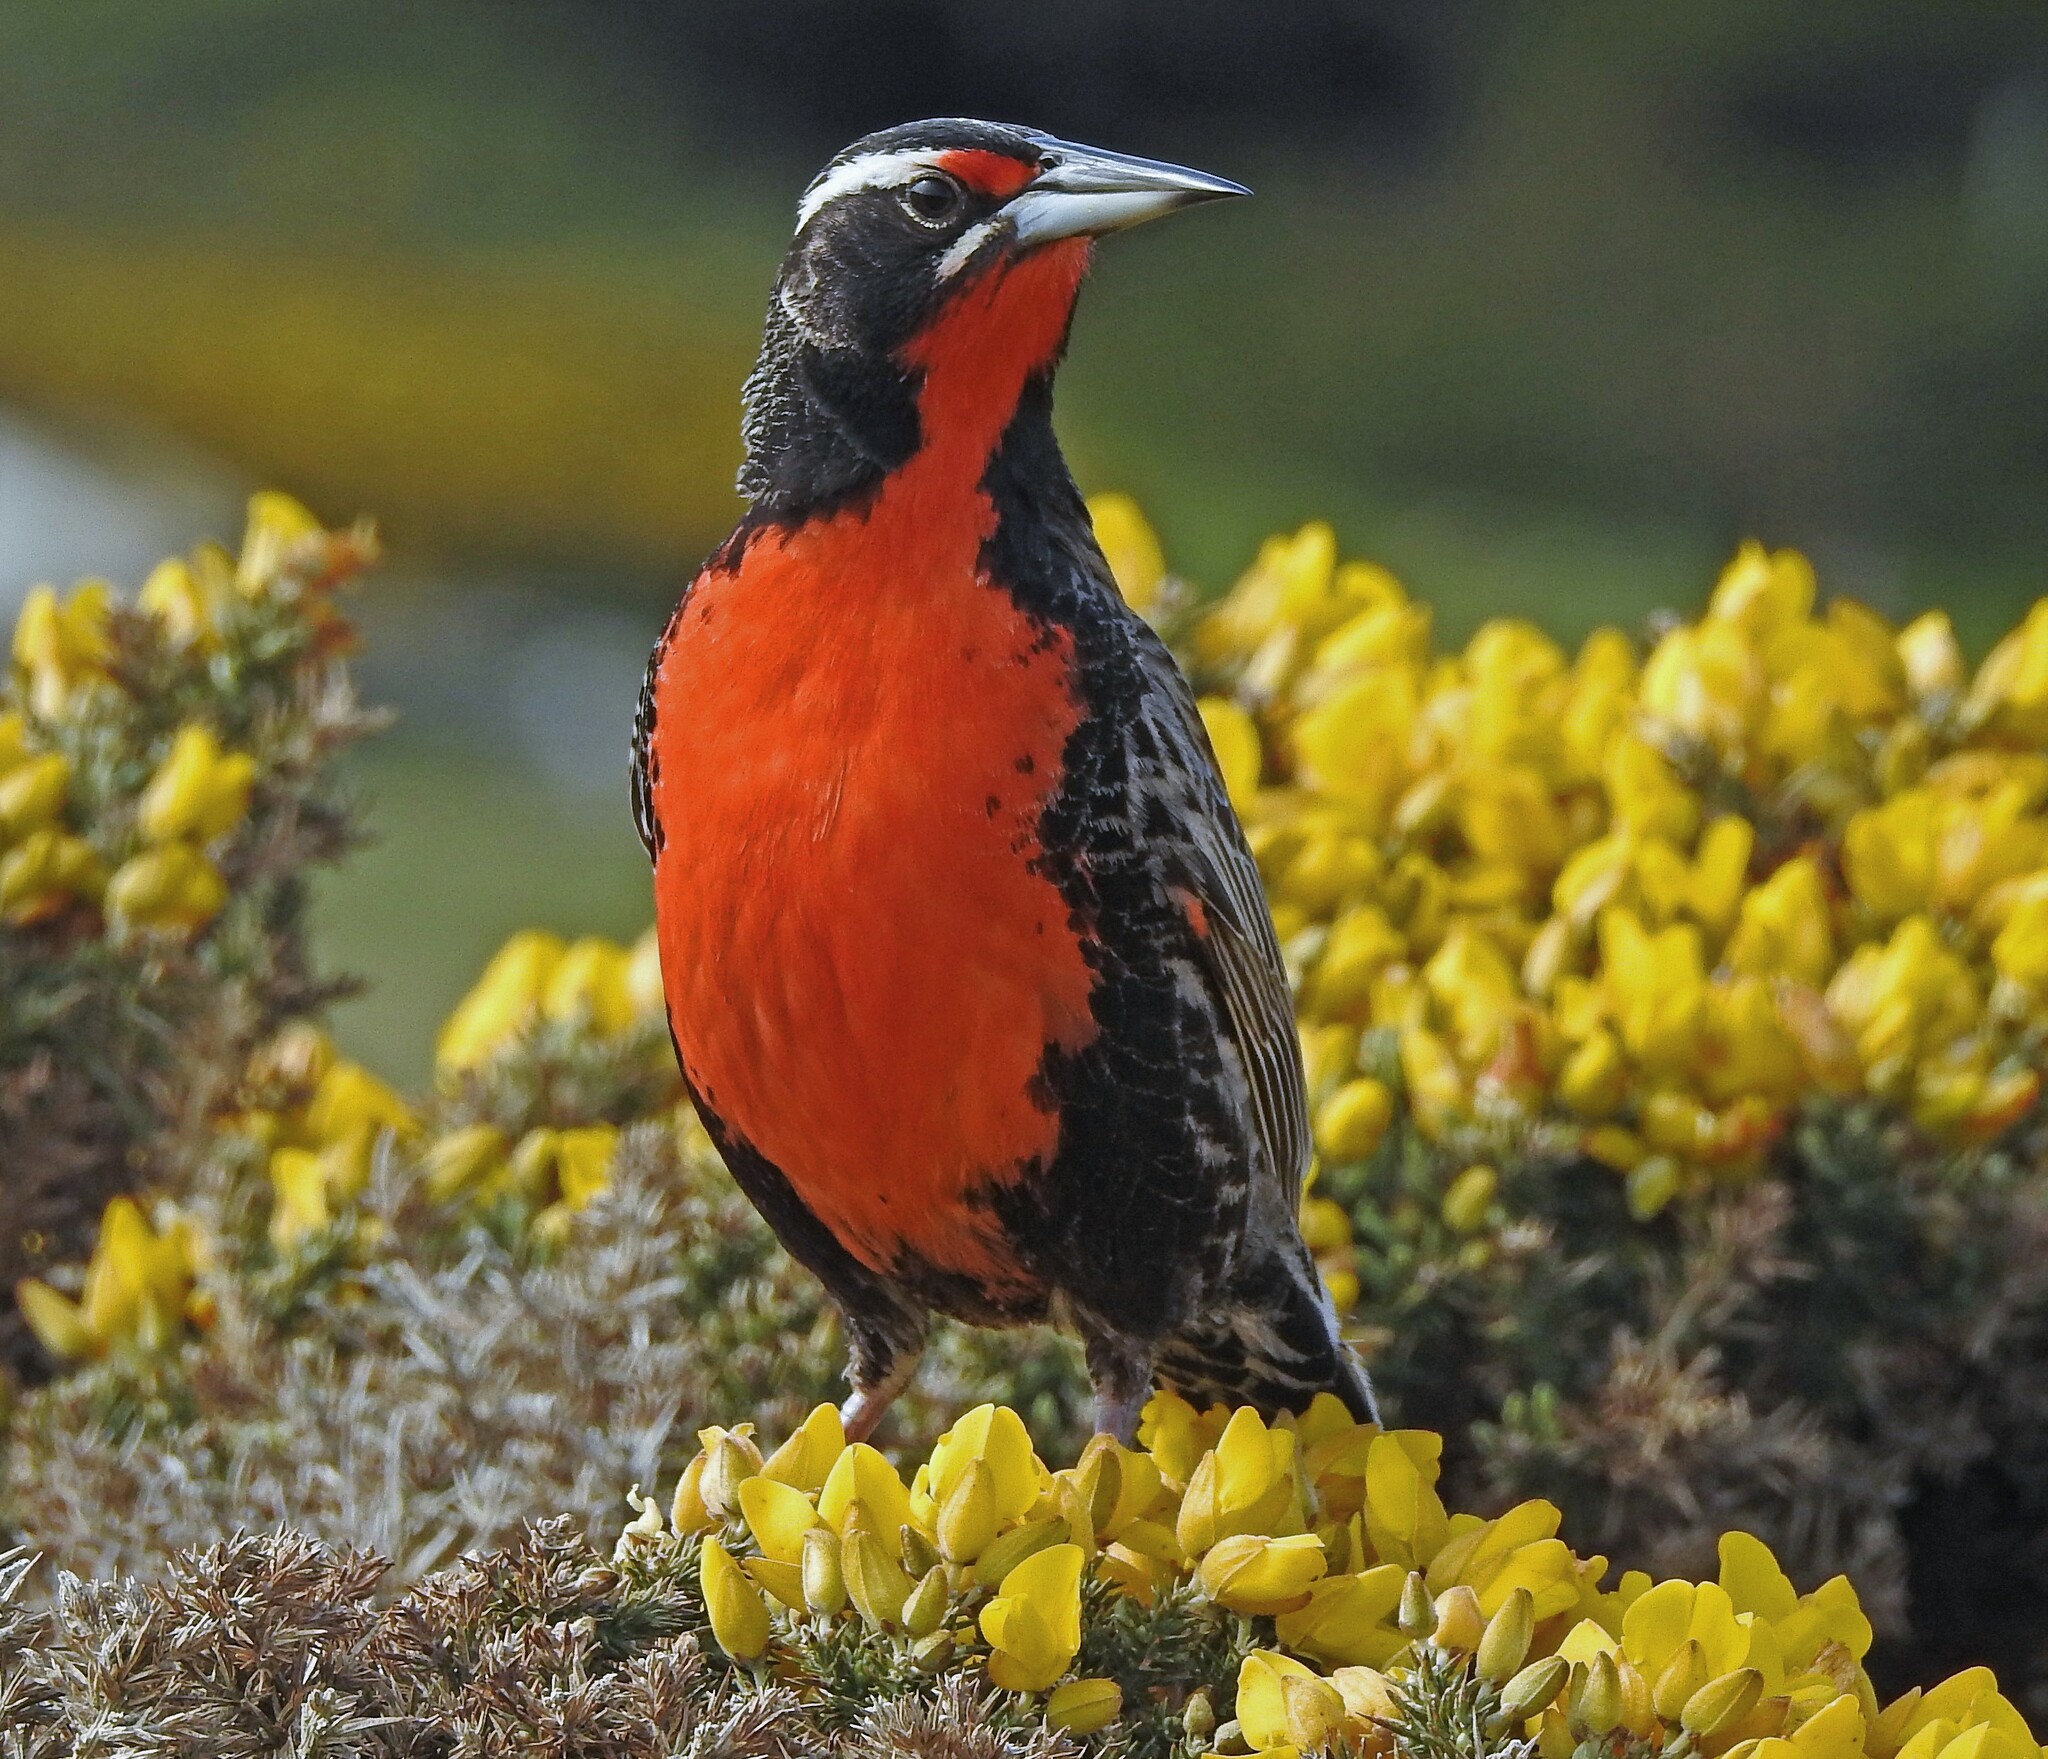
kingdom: Animalia
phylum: Chordata
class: Aves
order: Passeriformes
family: Icteridae
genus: Sturnella
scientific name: Sturnella loyca
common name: Long-tailed meadowlark
